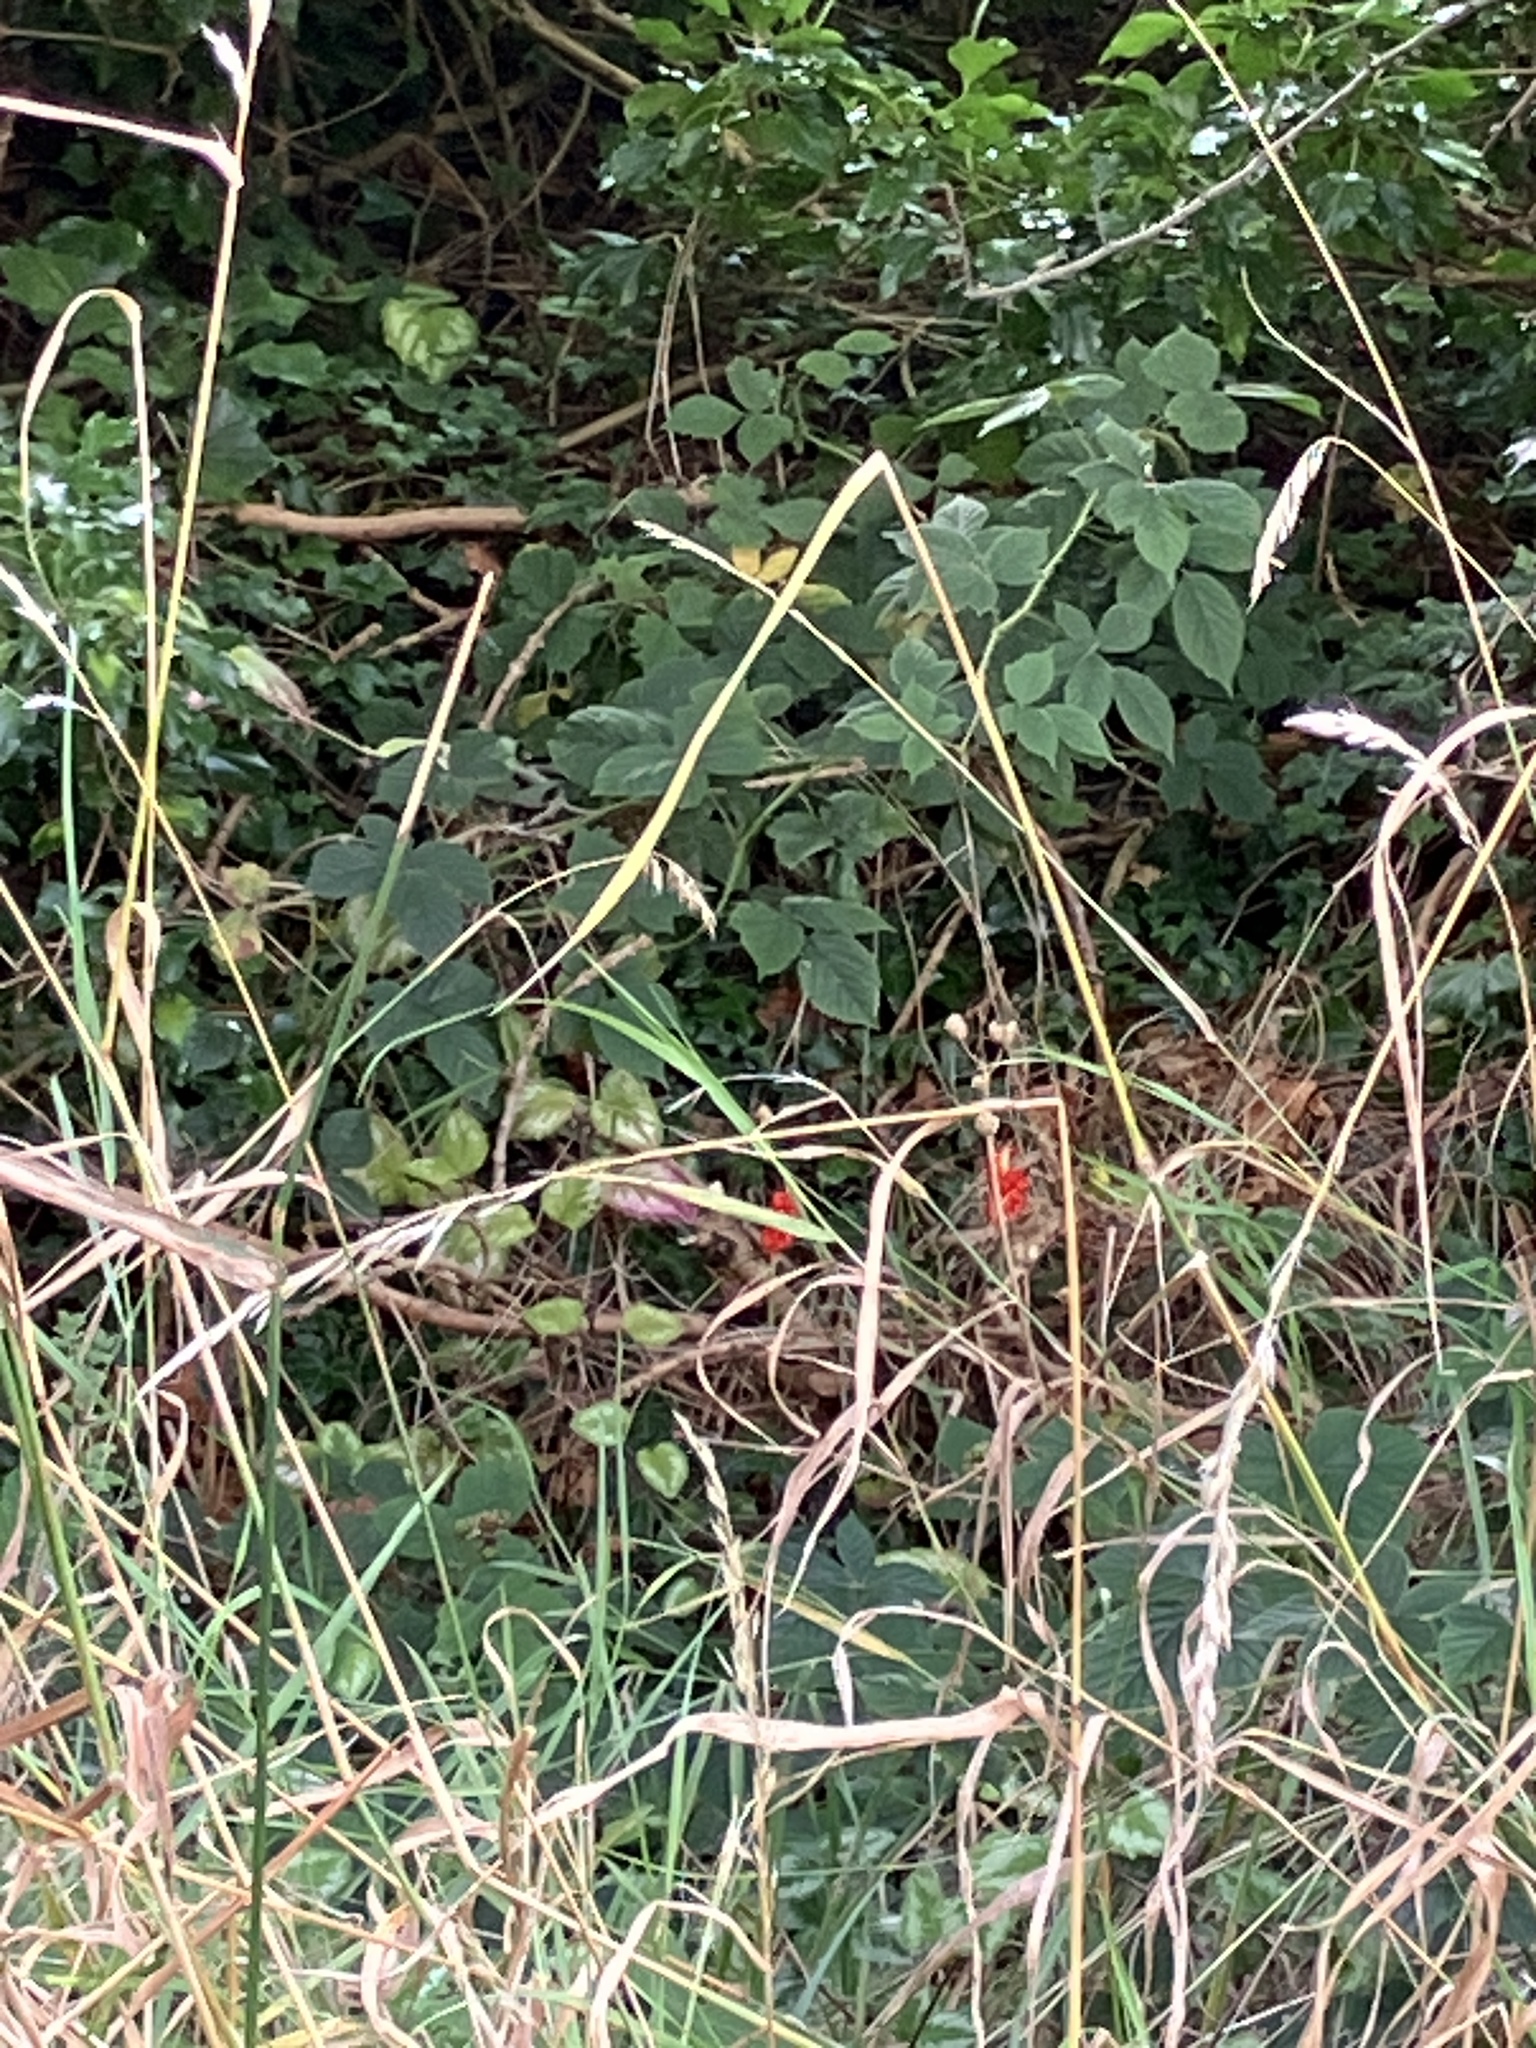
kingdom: Plantae
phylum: Tracheophyta
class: Liliopsida
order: Alismatales
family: Araceae
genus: Arum
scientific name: Arum maculatum
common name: Lords-and-ladies
